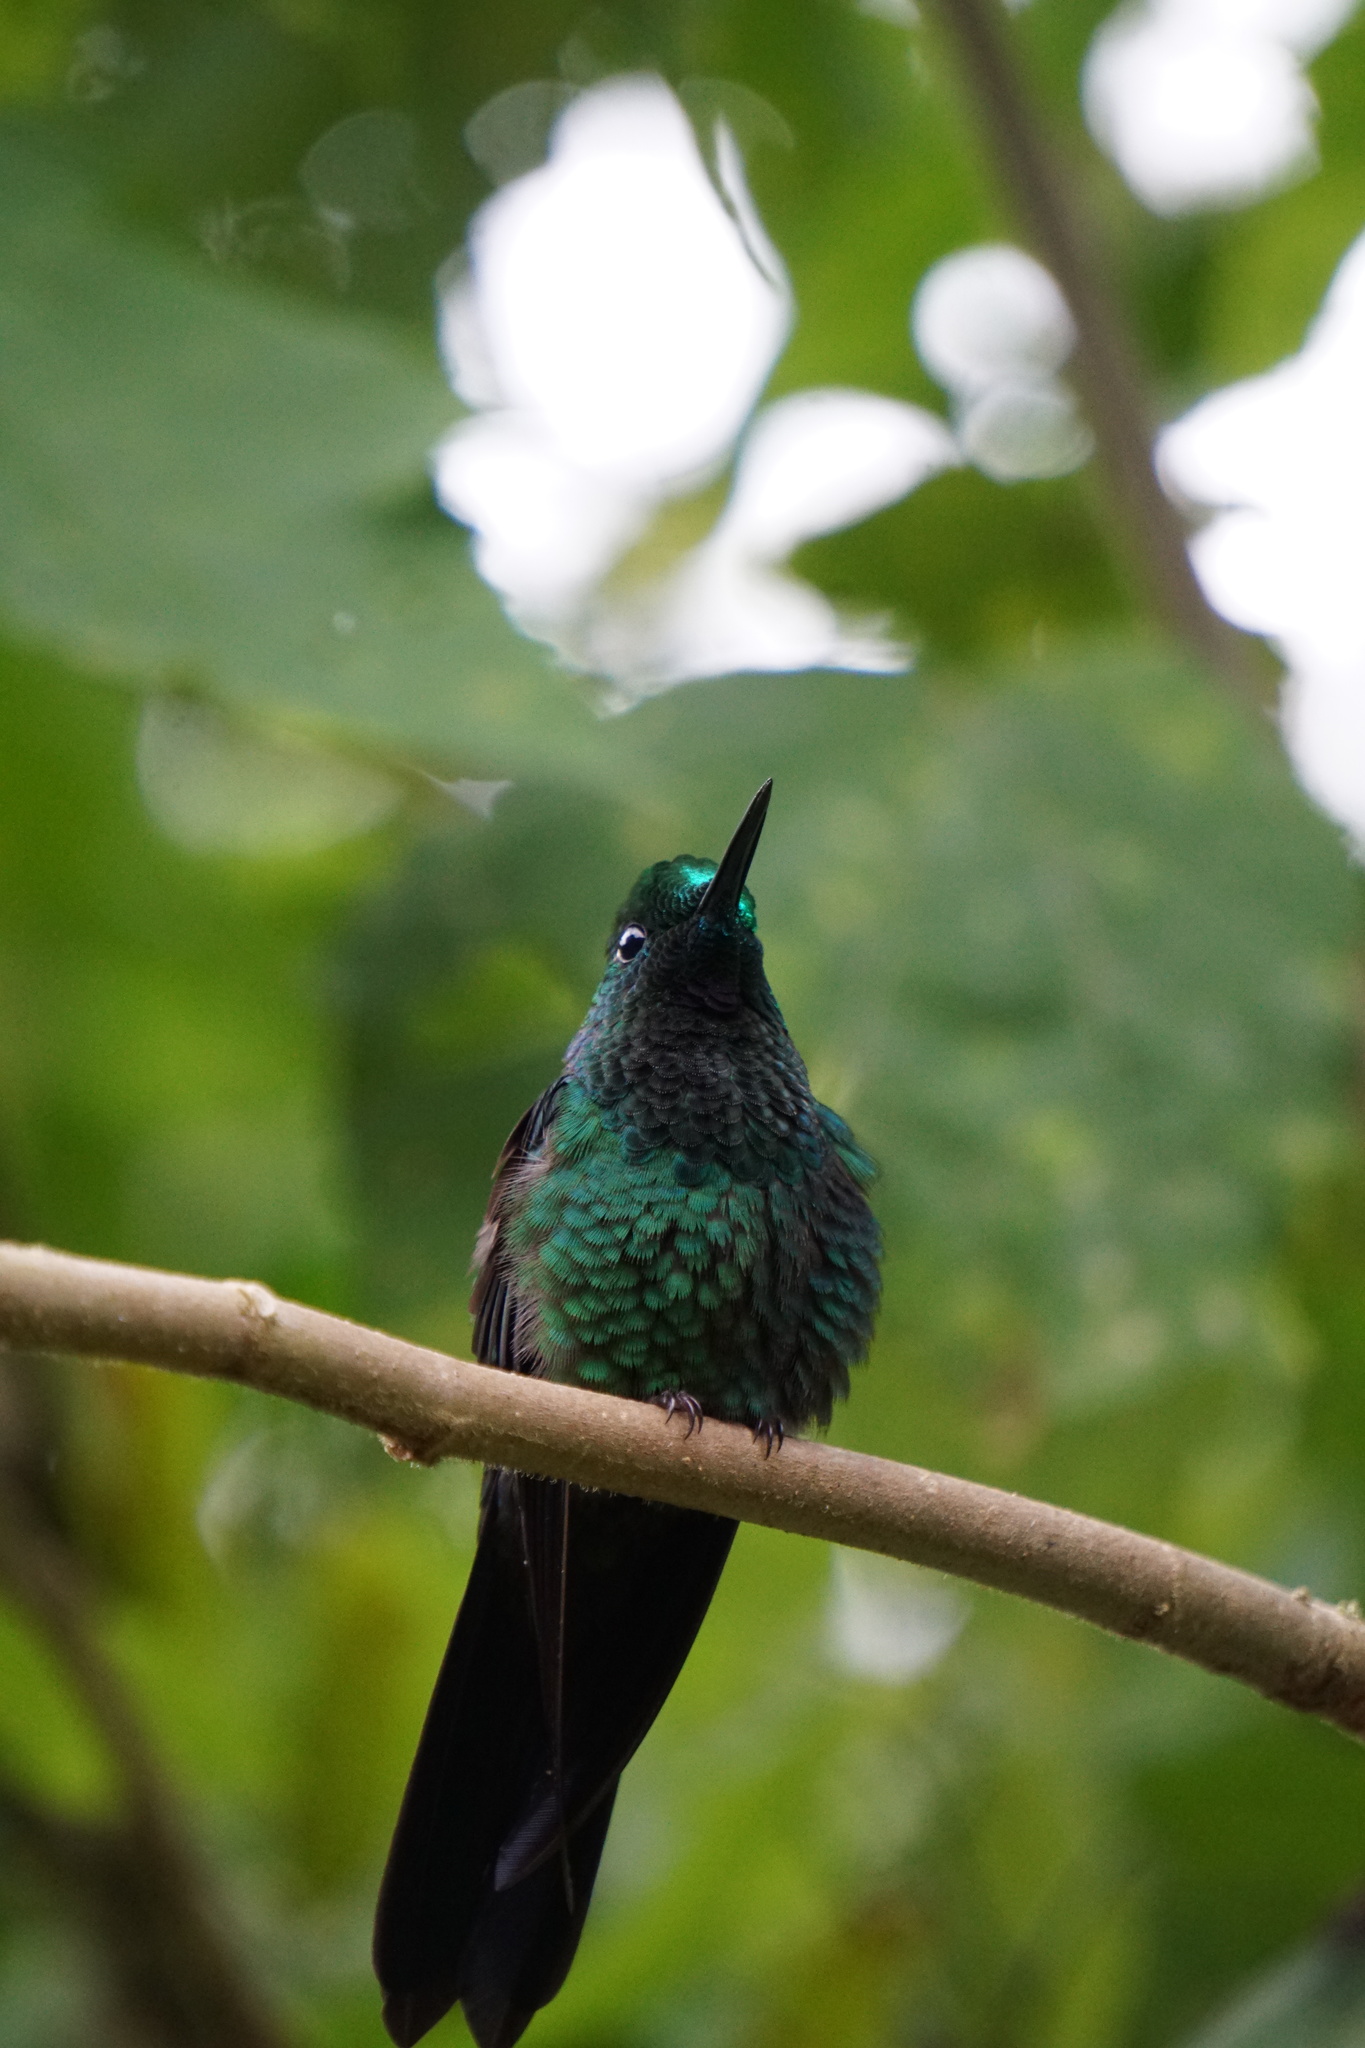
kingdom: Animalia
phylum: Chordata
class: Aves
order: Apodiformes
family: Trochilidae
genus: Heliodoxa
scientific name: Heliodoxa jacula
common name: Green-crowned brilliant
